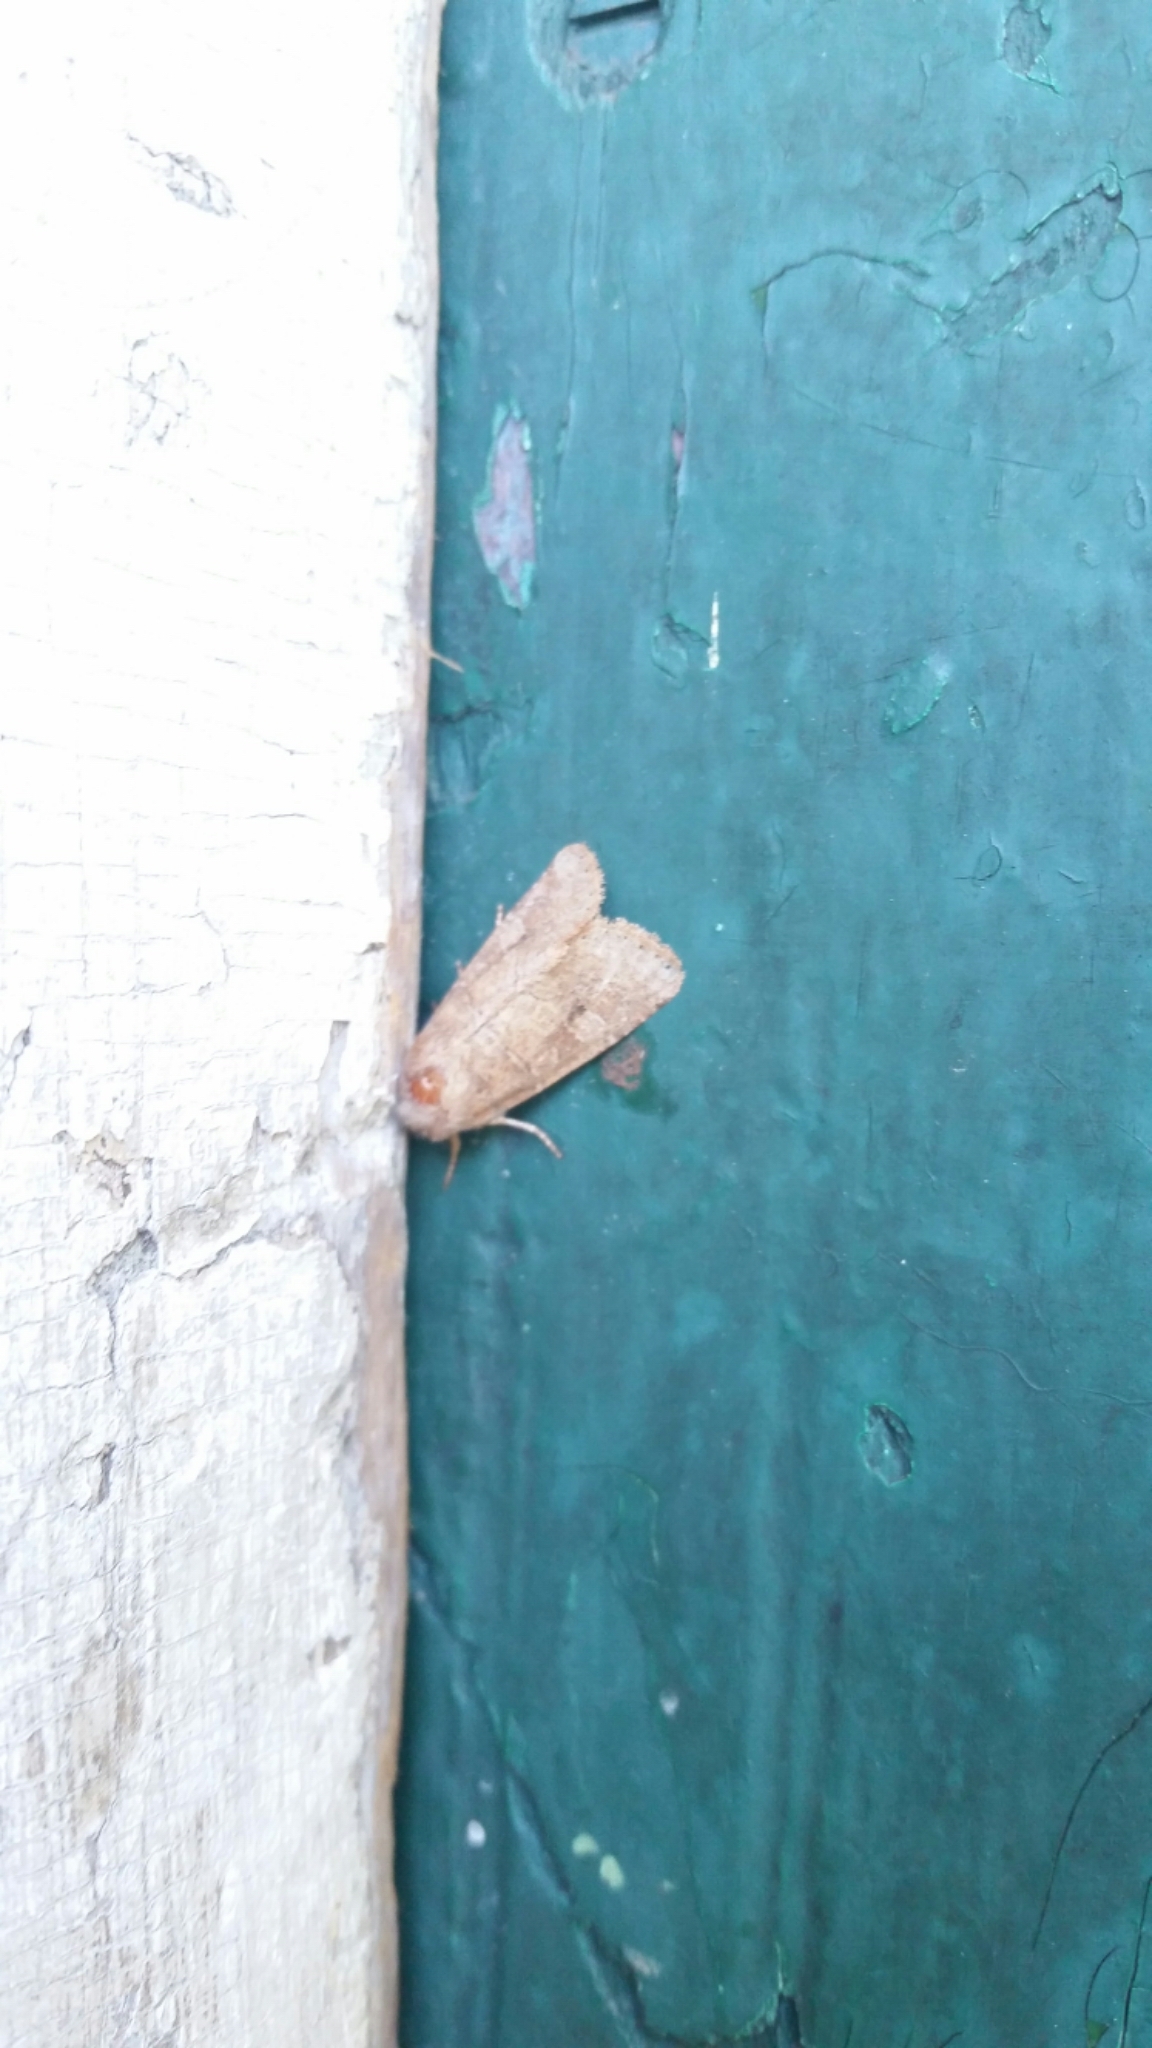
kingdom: Animalia
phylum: Arthropoda
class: Insecta
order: Lepidoptera
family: Noctuidae
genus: Crocigrapha
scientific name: Crocigrapha normani
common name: Norman's quaker
